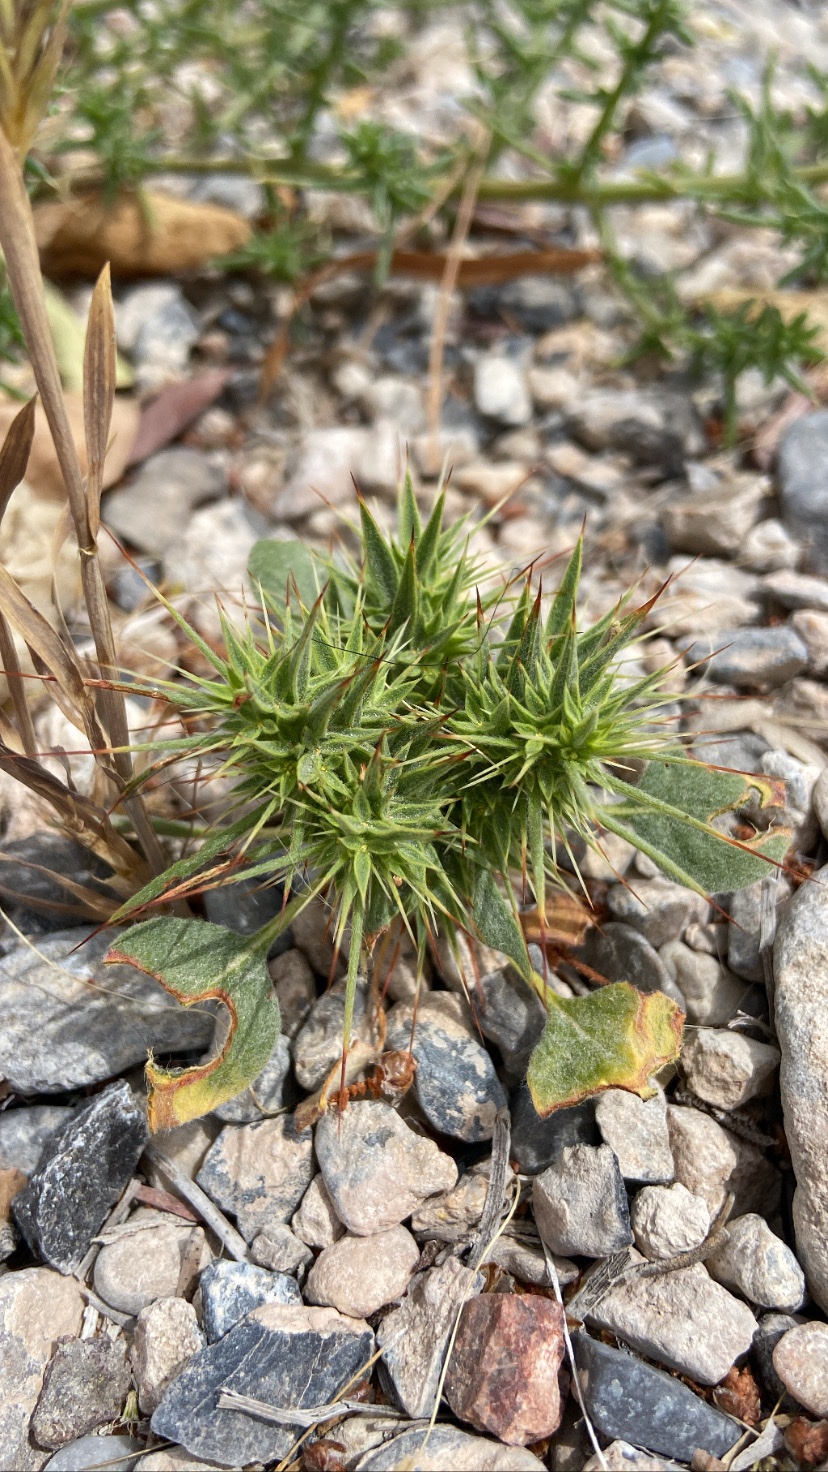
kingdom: Plantae
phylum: Tracheophyta
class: Magnoliopsida
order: Caryophyllales
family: Polygonaceae
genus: Chorizanthe
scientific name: Chorizanthe rigida
